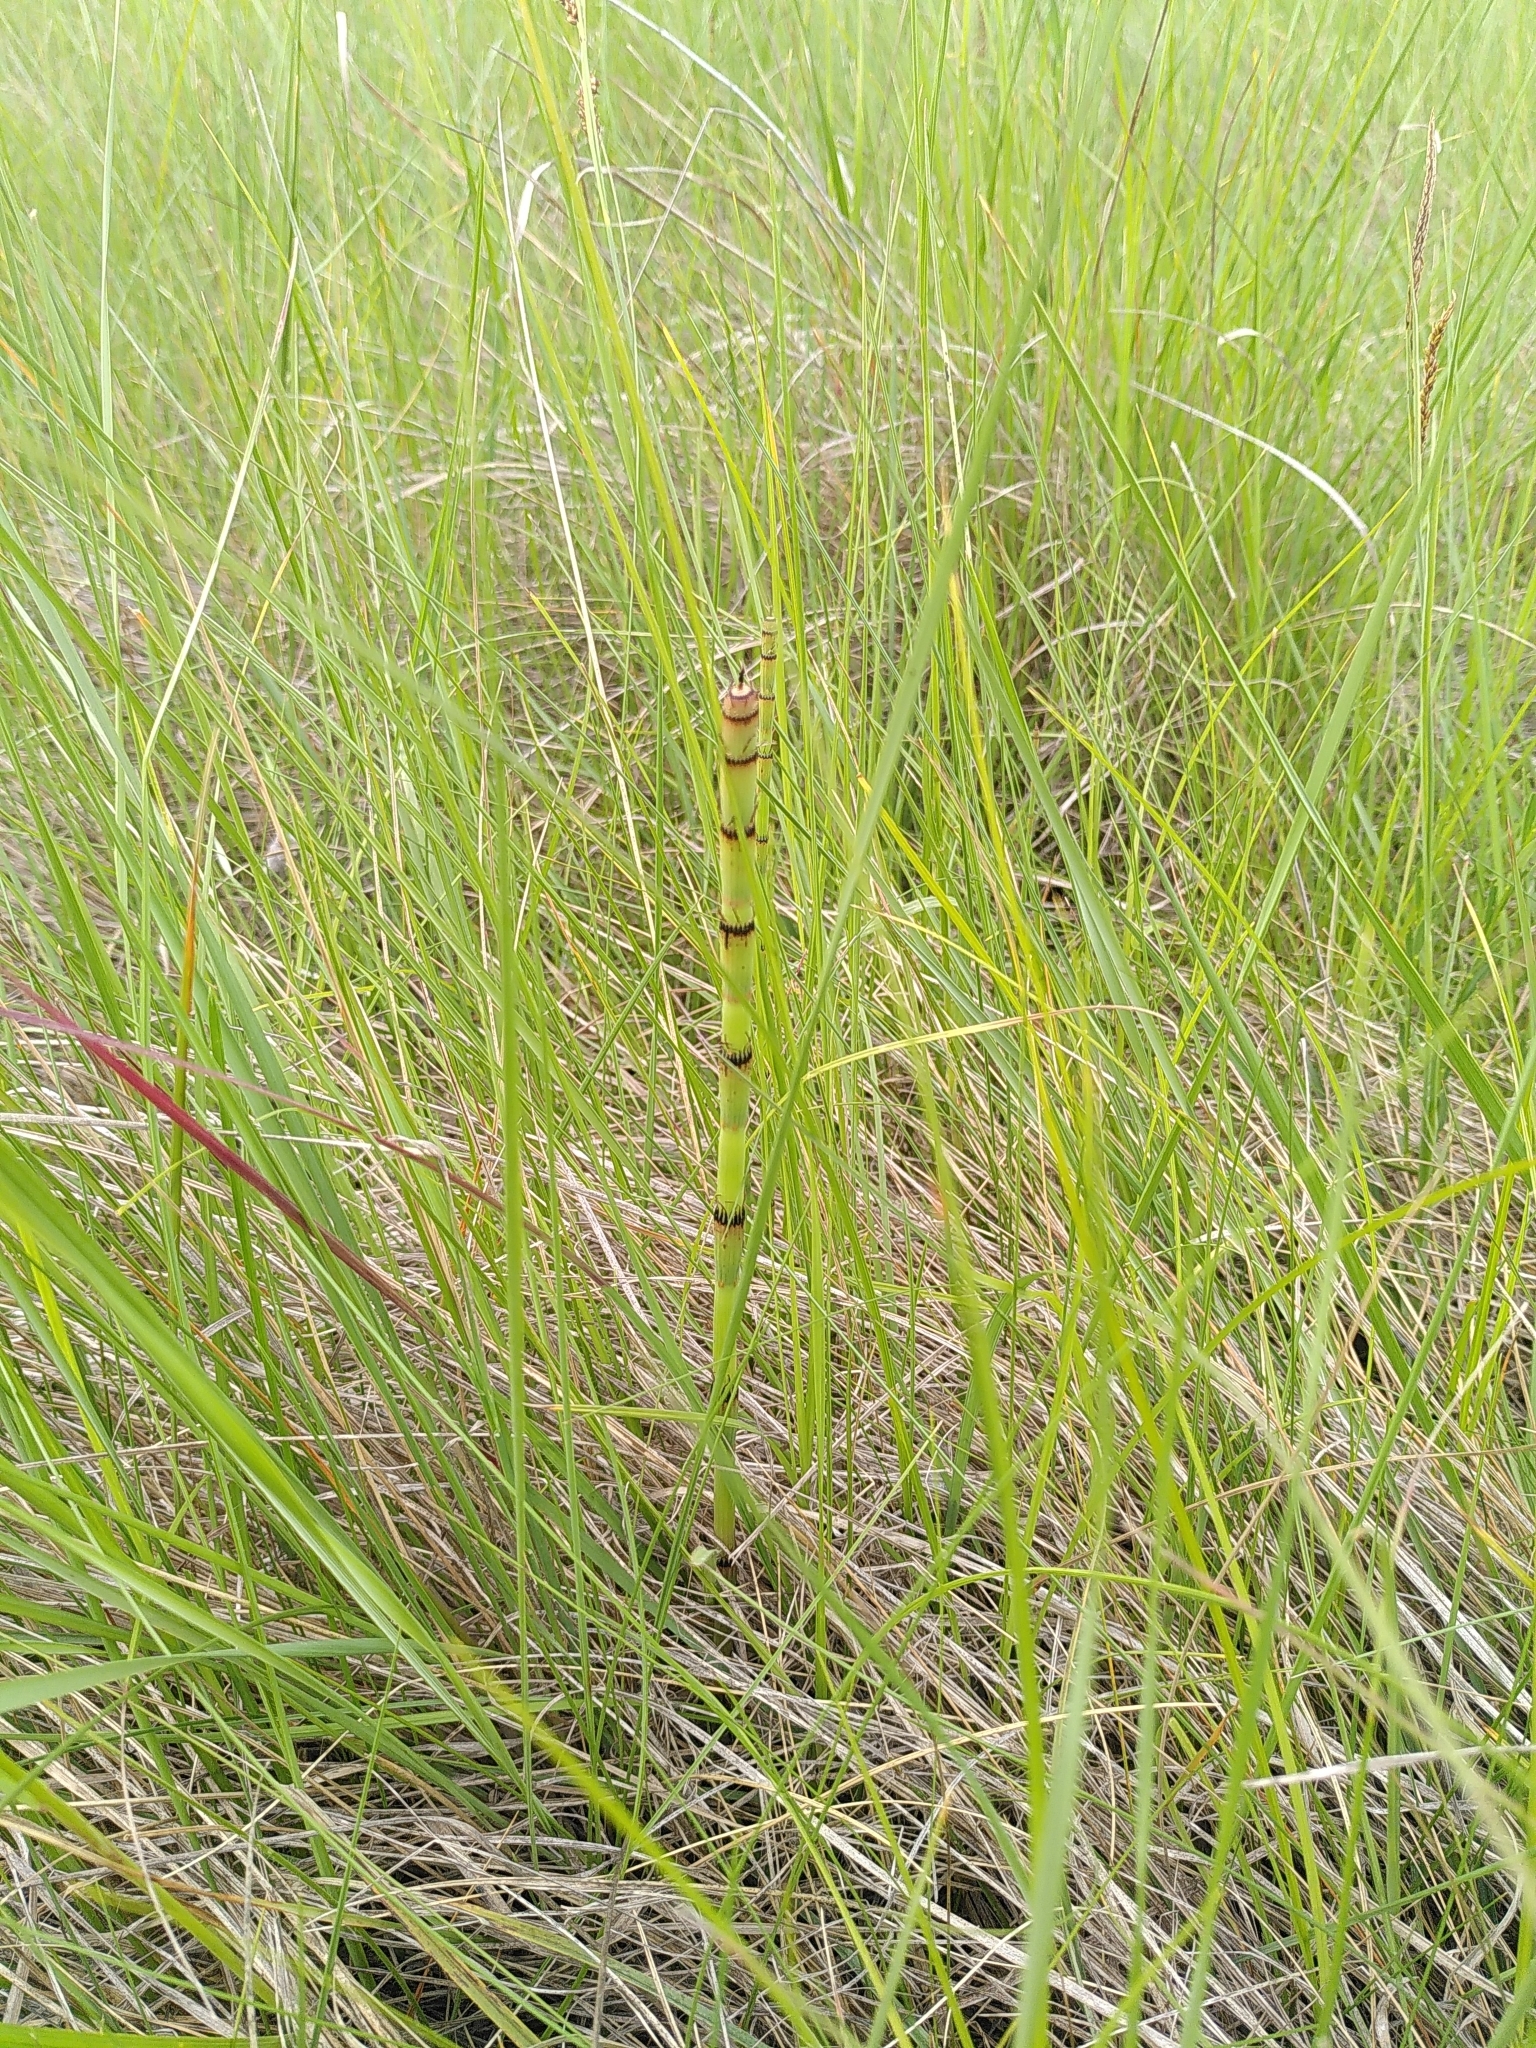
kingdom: Plantae
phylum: Tracheophyta
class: Polypodiopsida
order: Equisetales
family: Equisetaceae
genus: Equisetum
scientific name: Equisetum ramosissimum
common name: Branched horsetail
